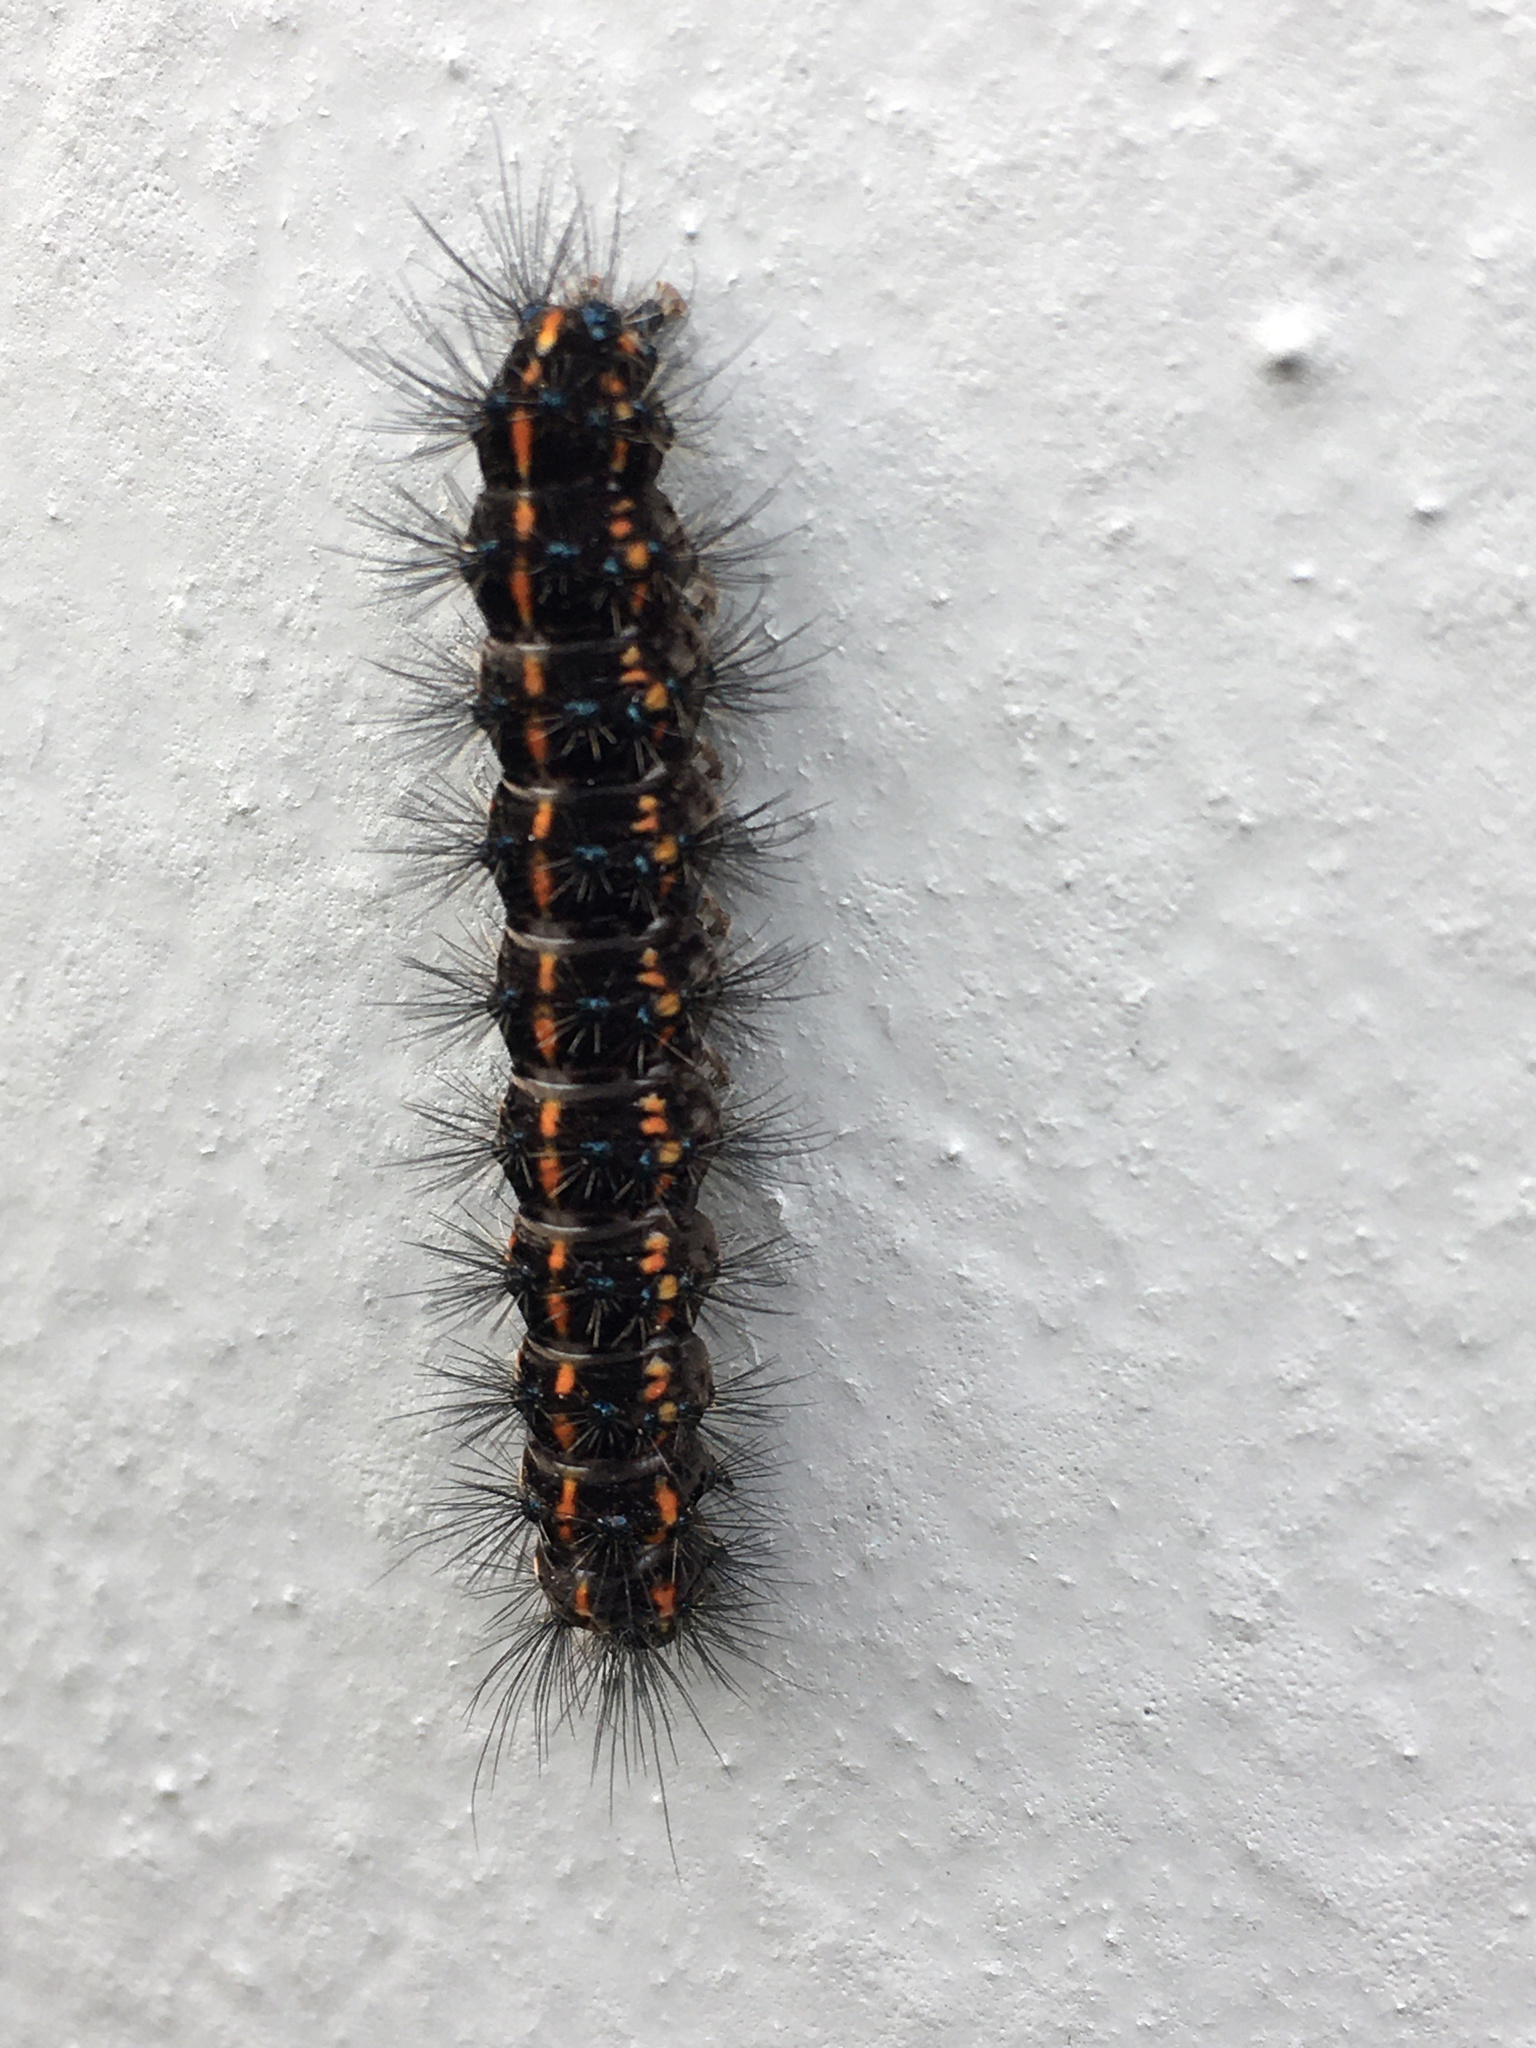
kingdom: Animalia
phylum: Arthropoda
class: Insecta
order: Lepidoptera
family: Erebidae
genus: Nyctemera
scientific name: Nyctemera annulatum
